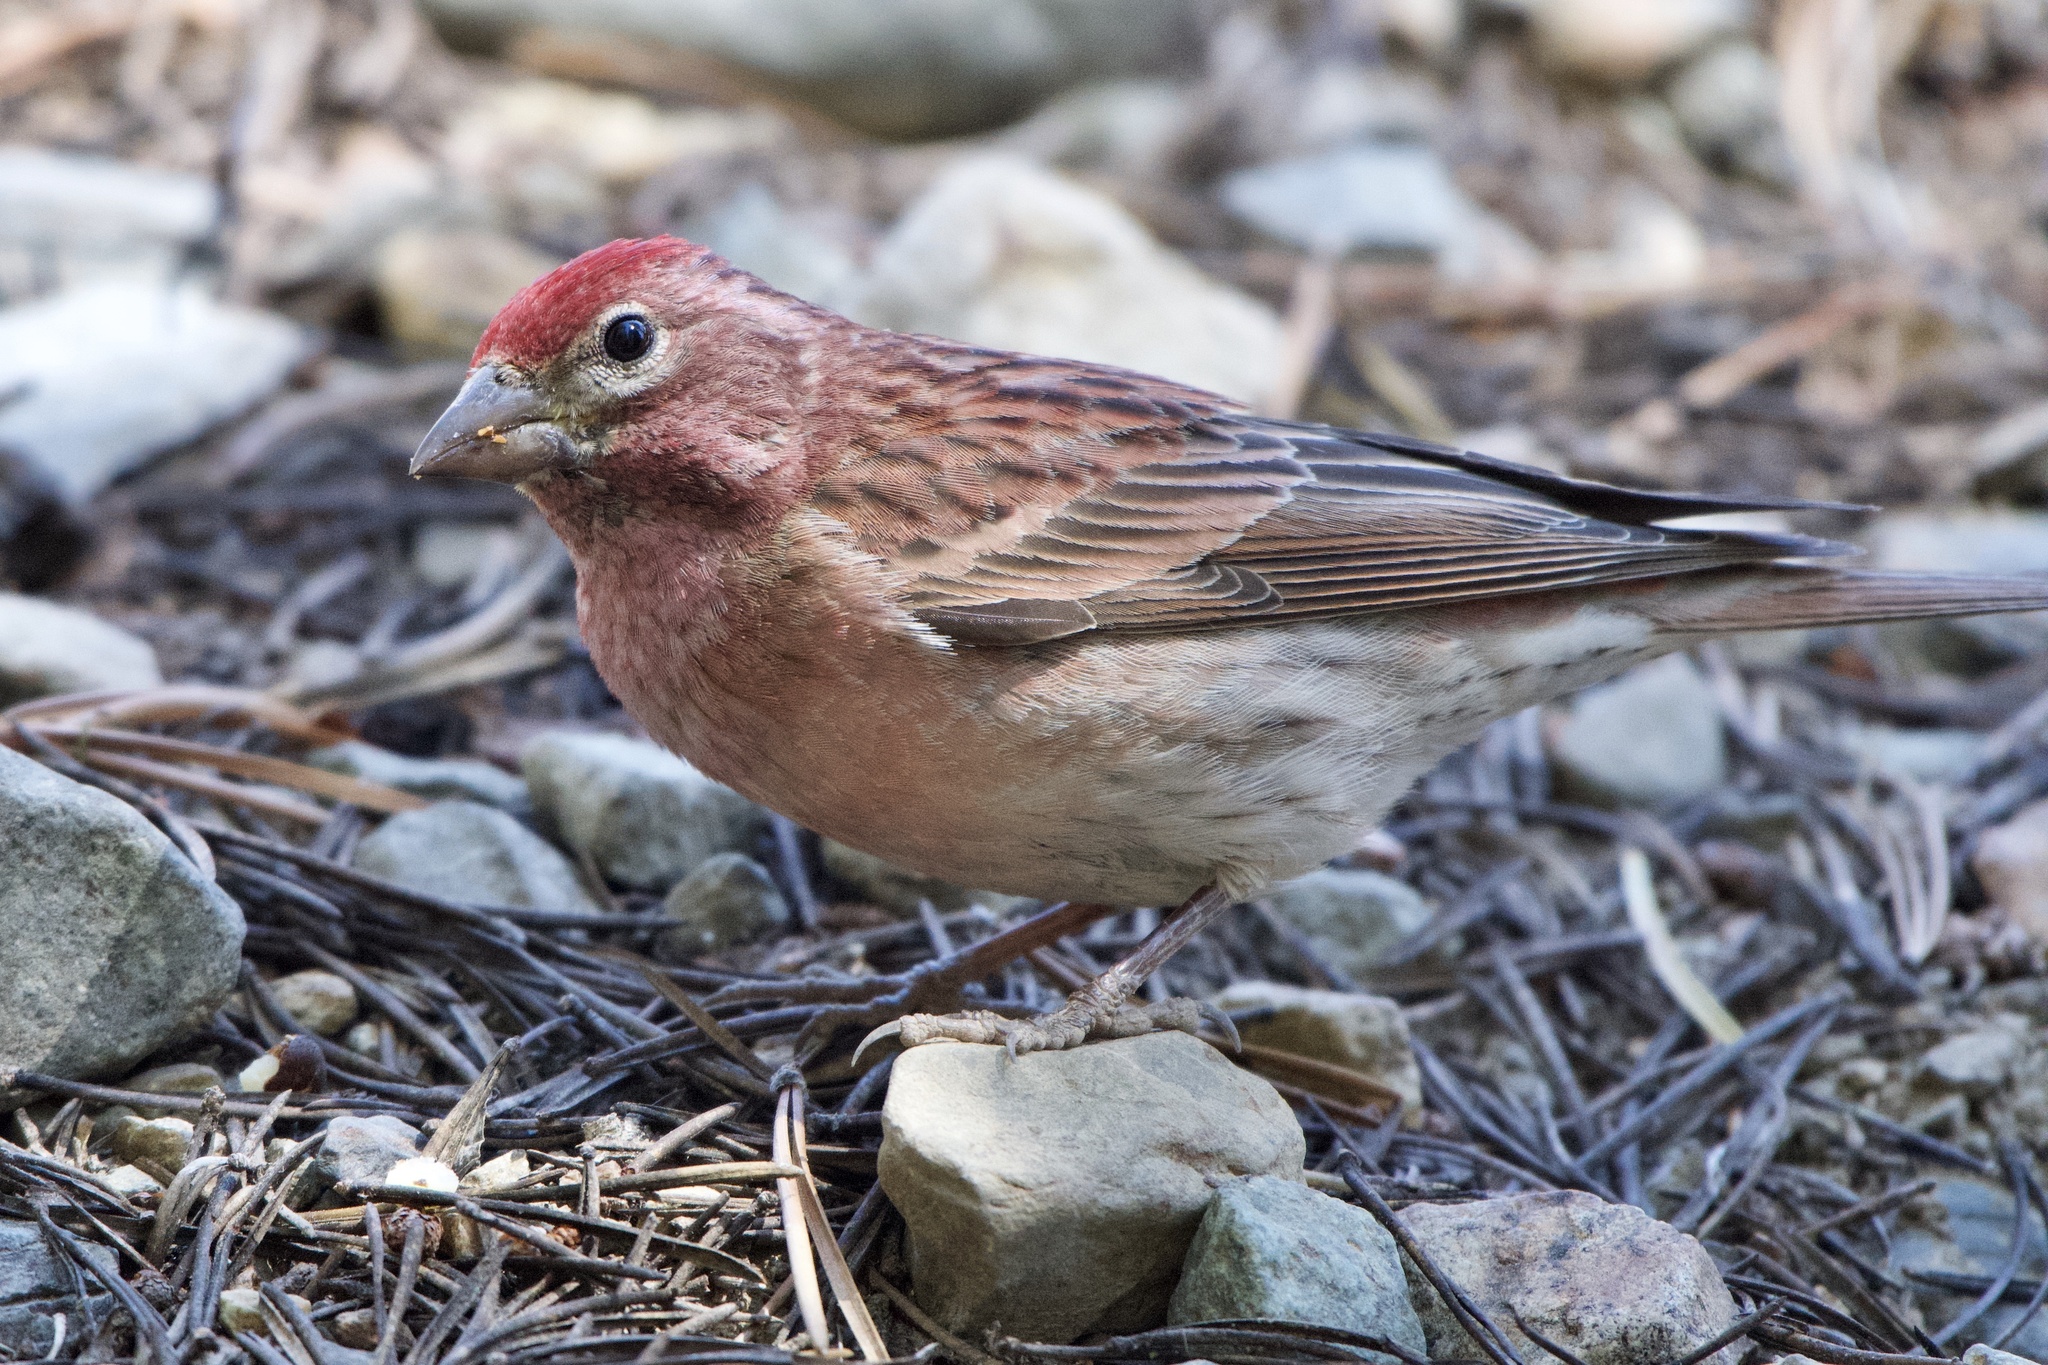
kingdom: Animalia
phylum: Chordata
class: Aves
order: Passeriformes
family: Fringillidae
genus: Haemorhous
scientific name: Haemorhous cassinii
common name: Cassin's finch
